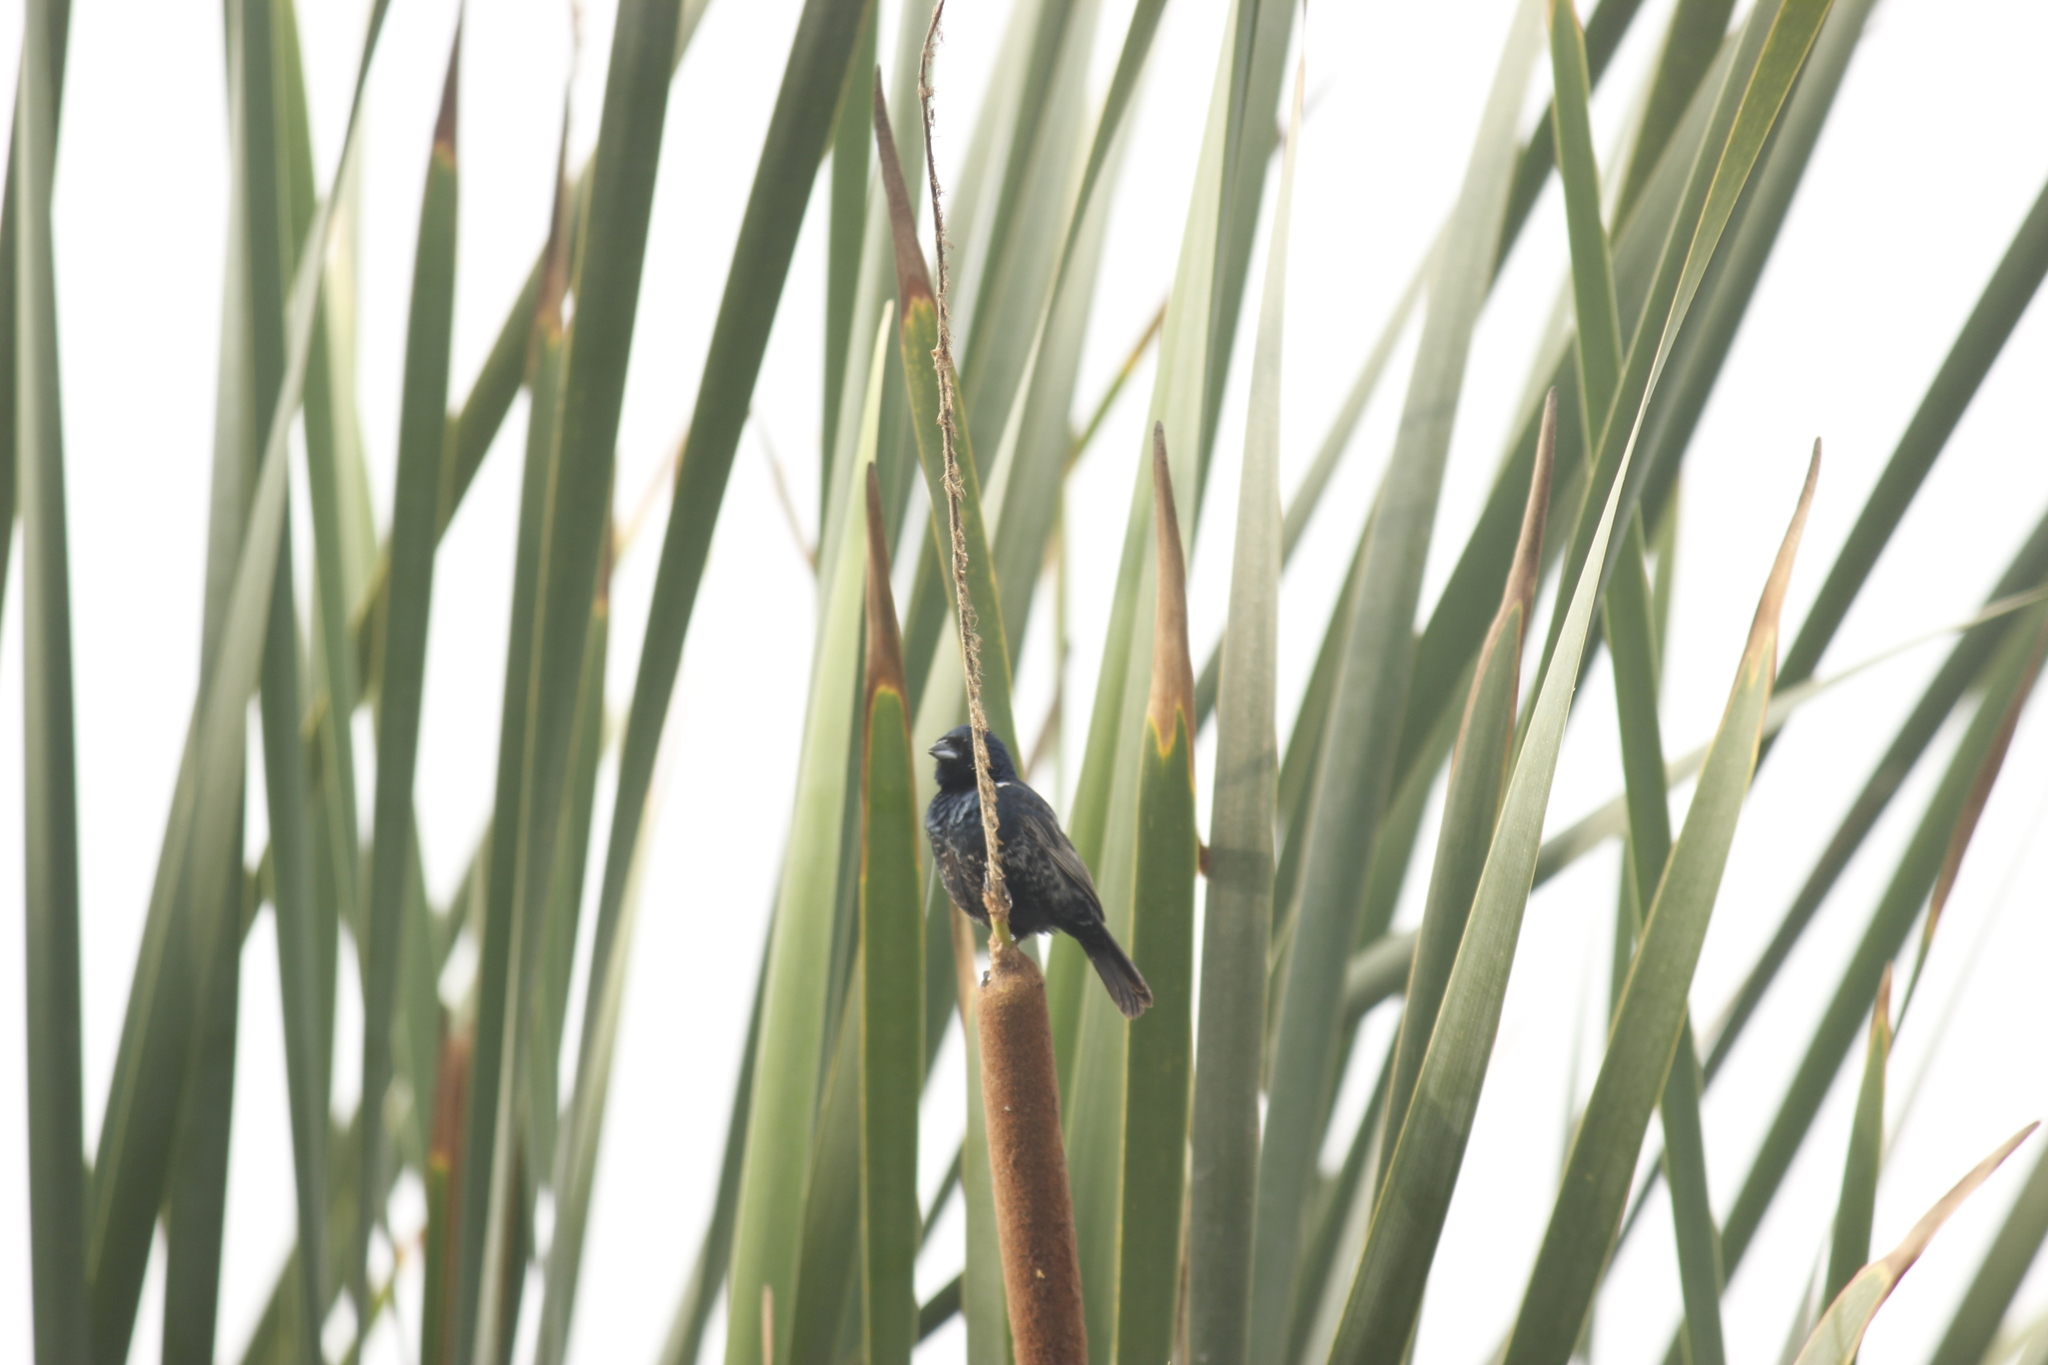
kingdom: Animalia
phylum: Chordata
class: Aves
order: Passeriformes
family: Thraupidae
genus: Volatinia
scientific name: Volatinia jacarina
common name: Blue-black grassquit
